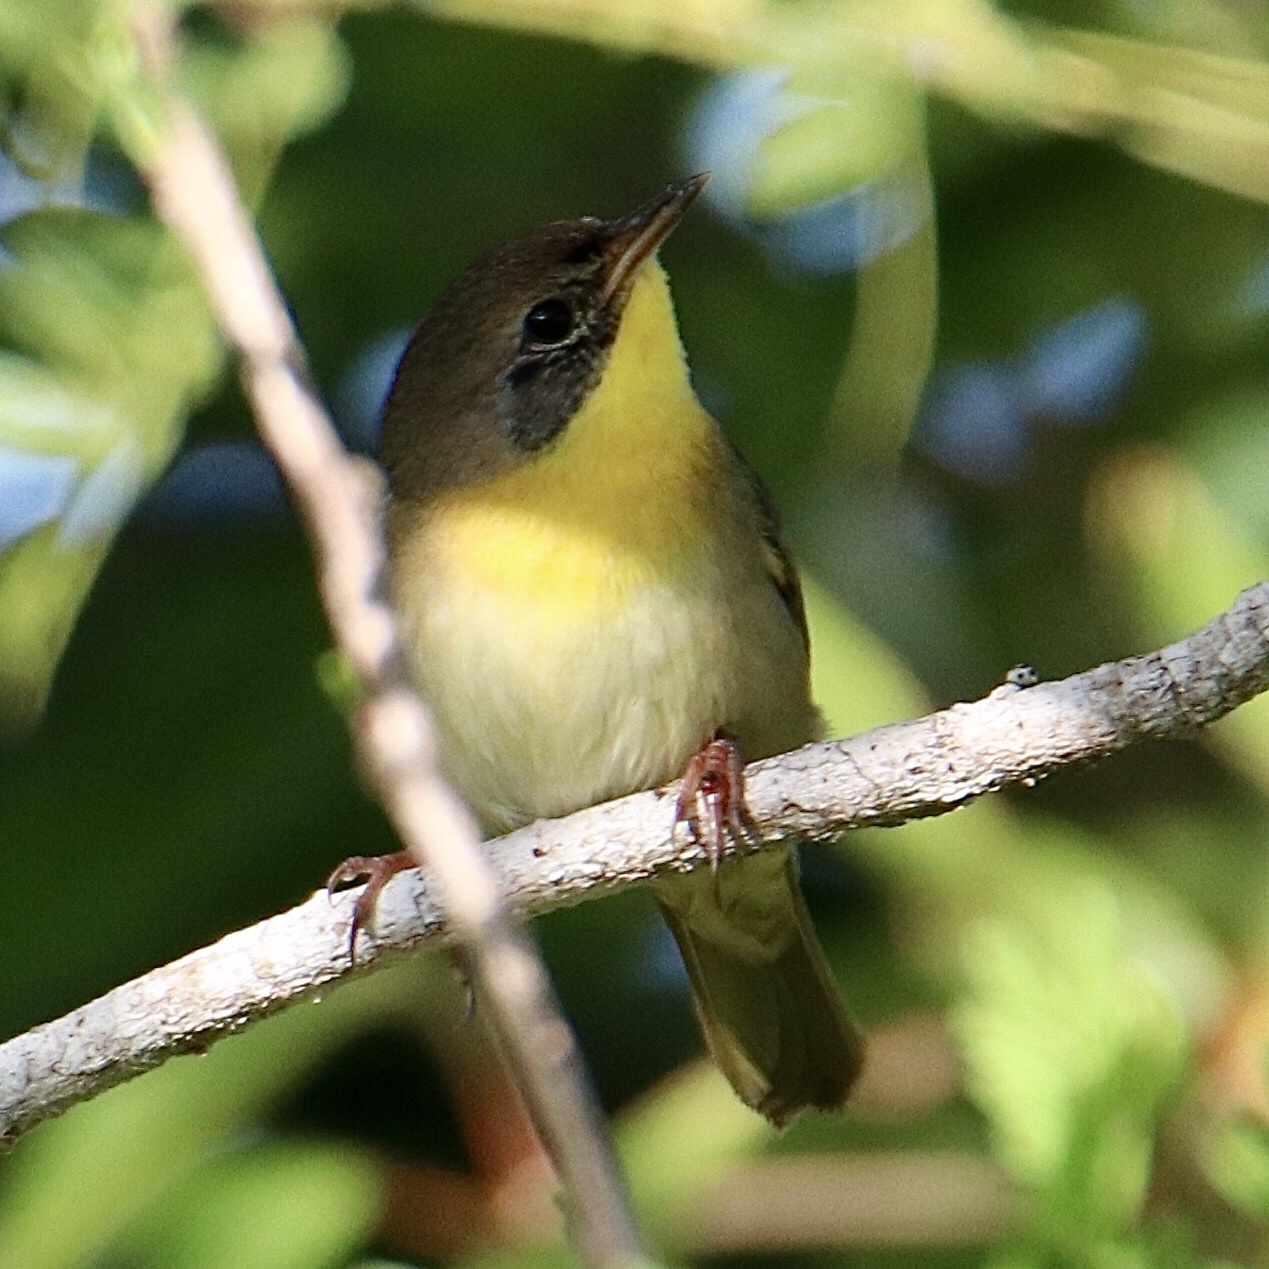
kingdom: Animalia
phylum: Chordata
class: Aves
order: Passeriformes
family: Parulidae
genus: Geothlypis
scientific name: Geothlypis trichas
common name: Common yellowthroat
